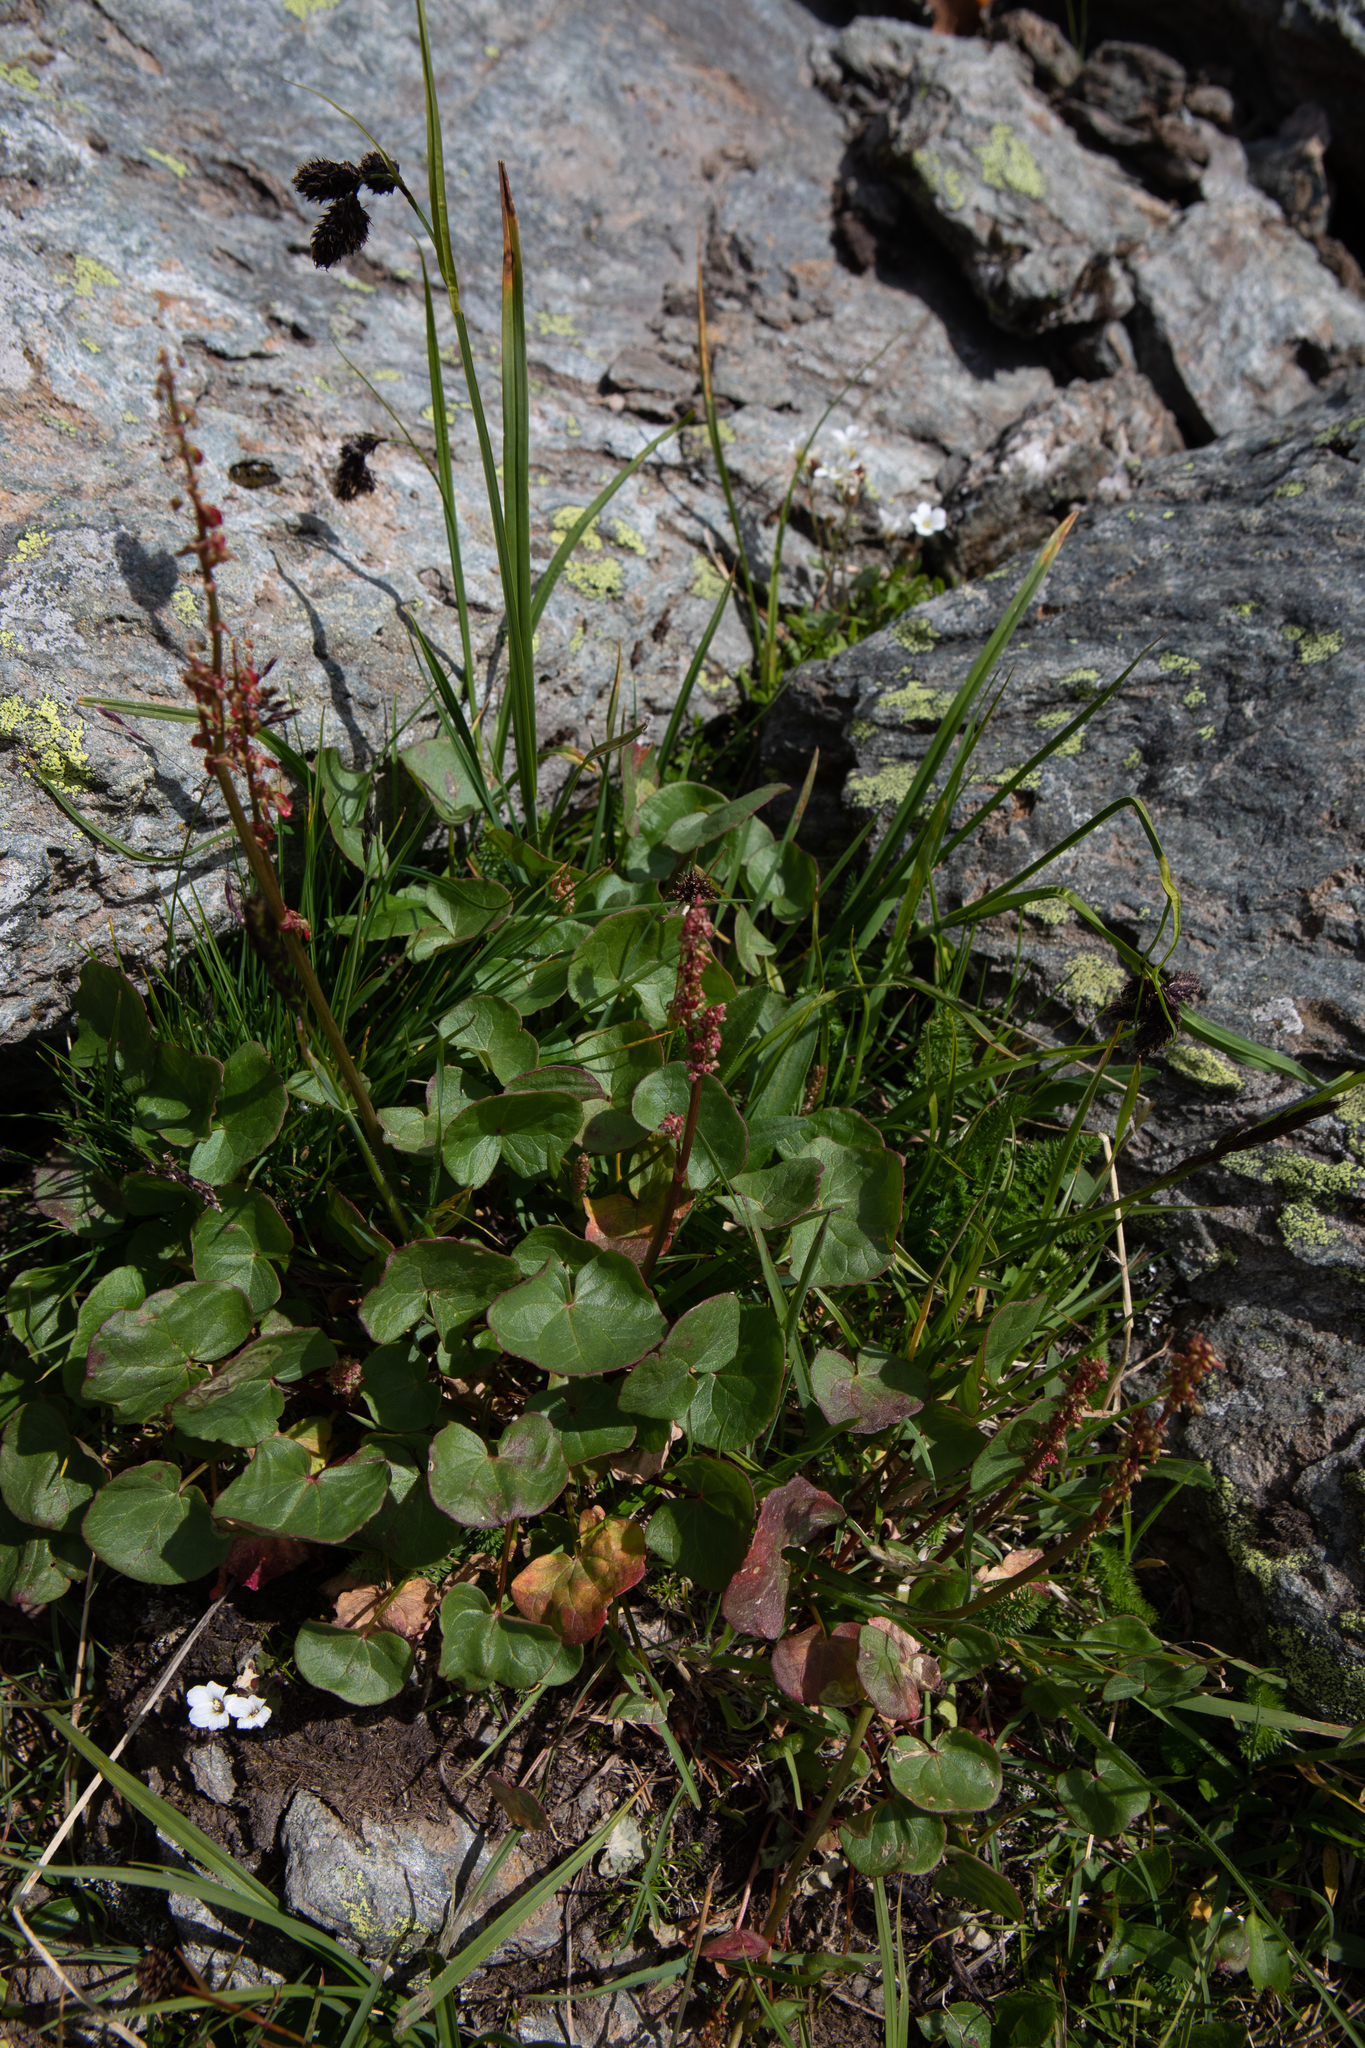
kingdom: Plantae
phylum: Tracheophyta
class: Magnoliopsida
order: Caryophyllales
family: Polygonaceae
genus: Oxyria
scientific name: Oxyria digyna
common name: Alpine mountain-sorrel
